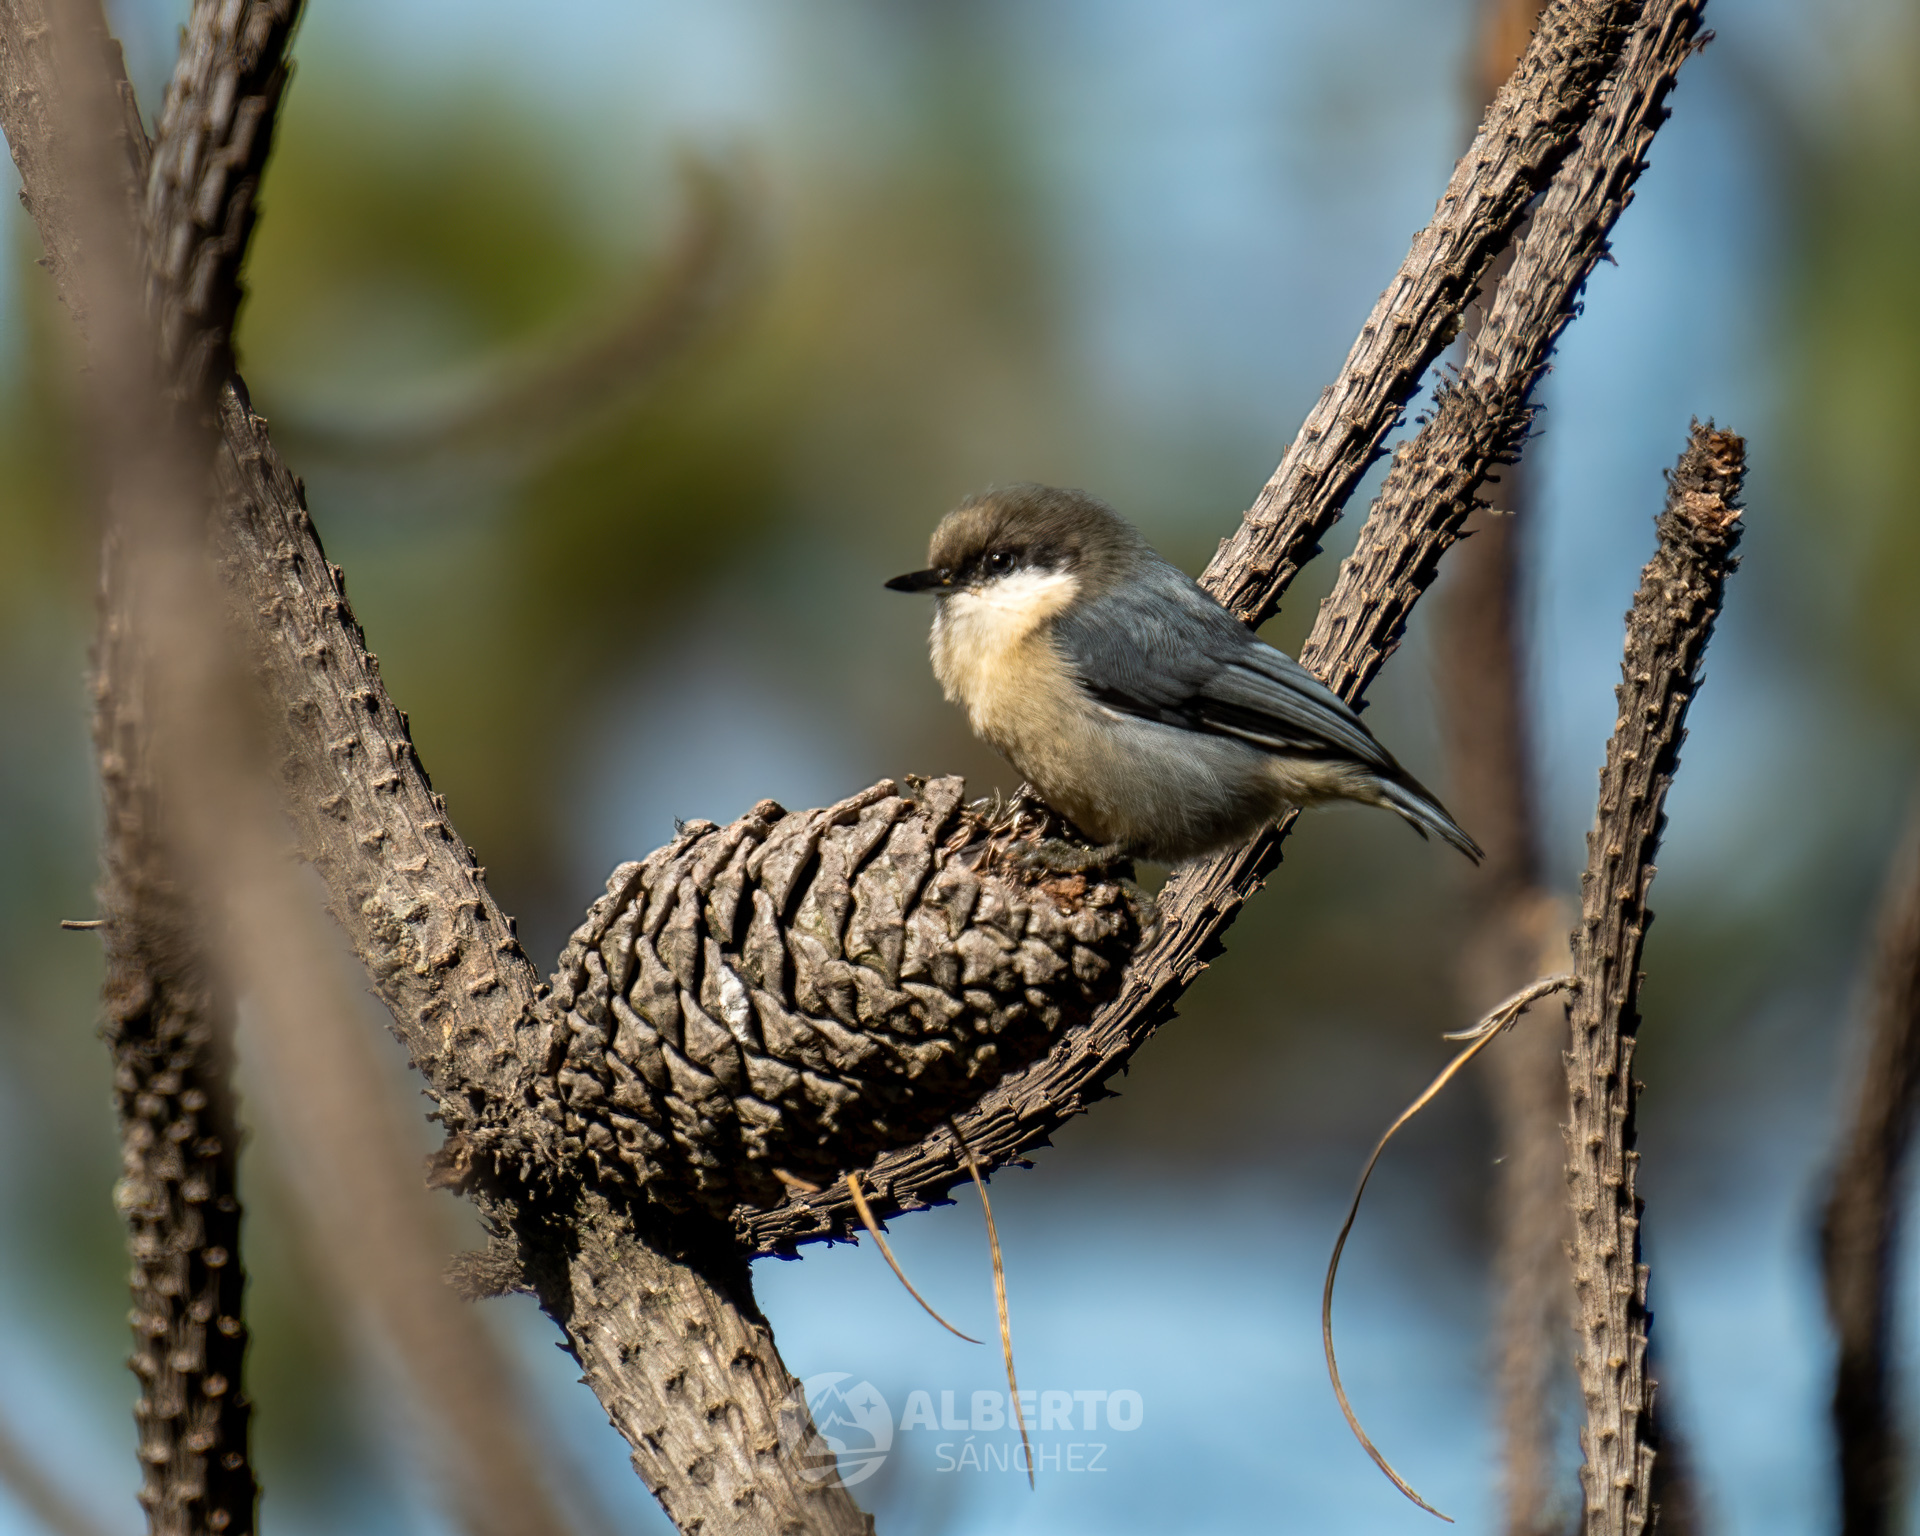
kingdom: Animalia
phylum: Chordata
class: Aves
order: Passeriformes
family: Sittidae
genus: Sitta
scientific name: Sitta pygmaea
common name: Pygmy nuthatch
